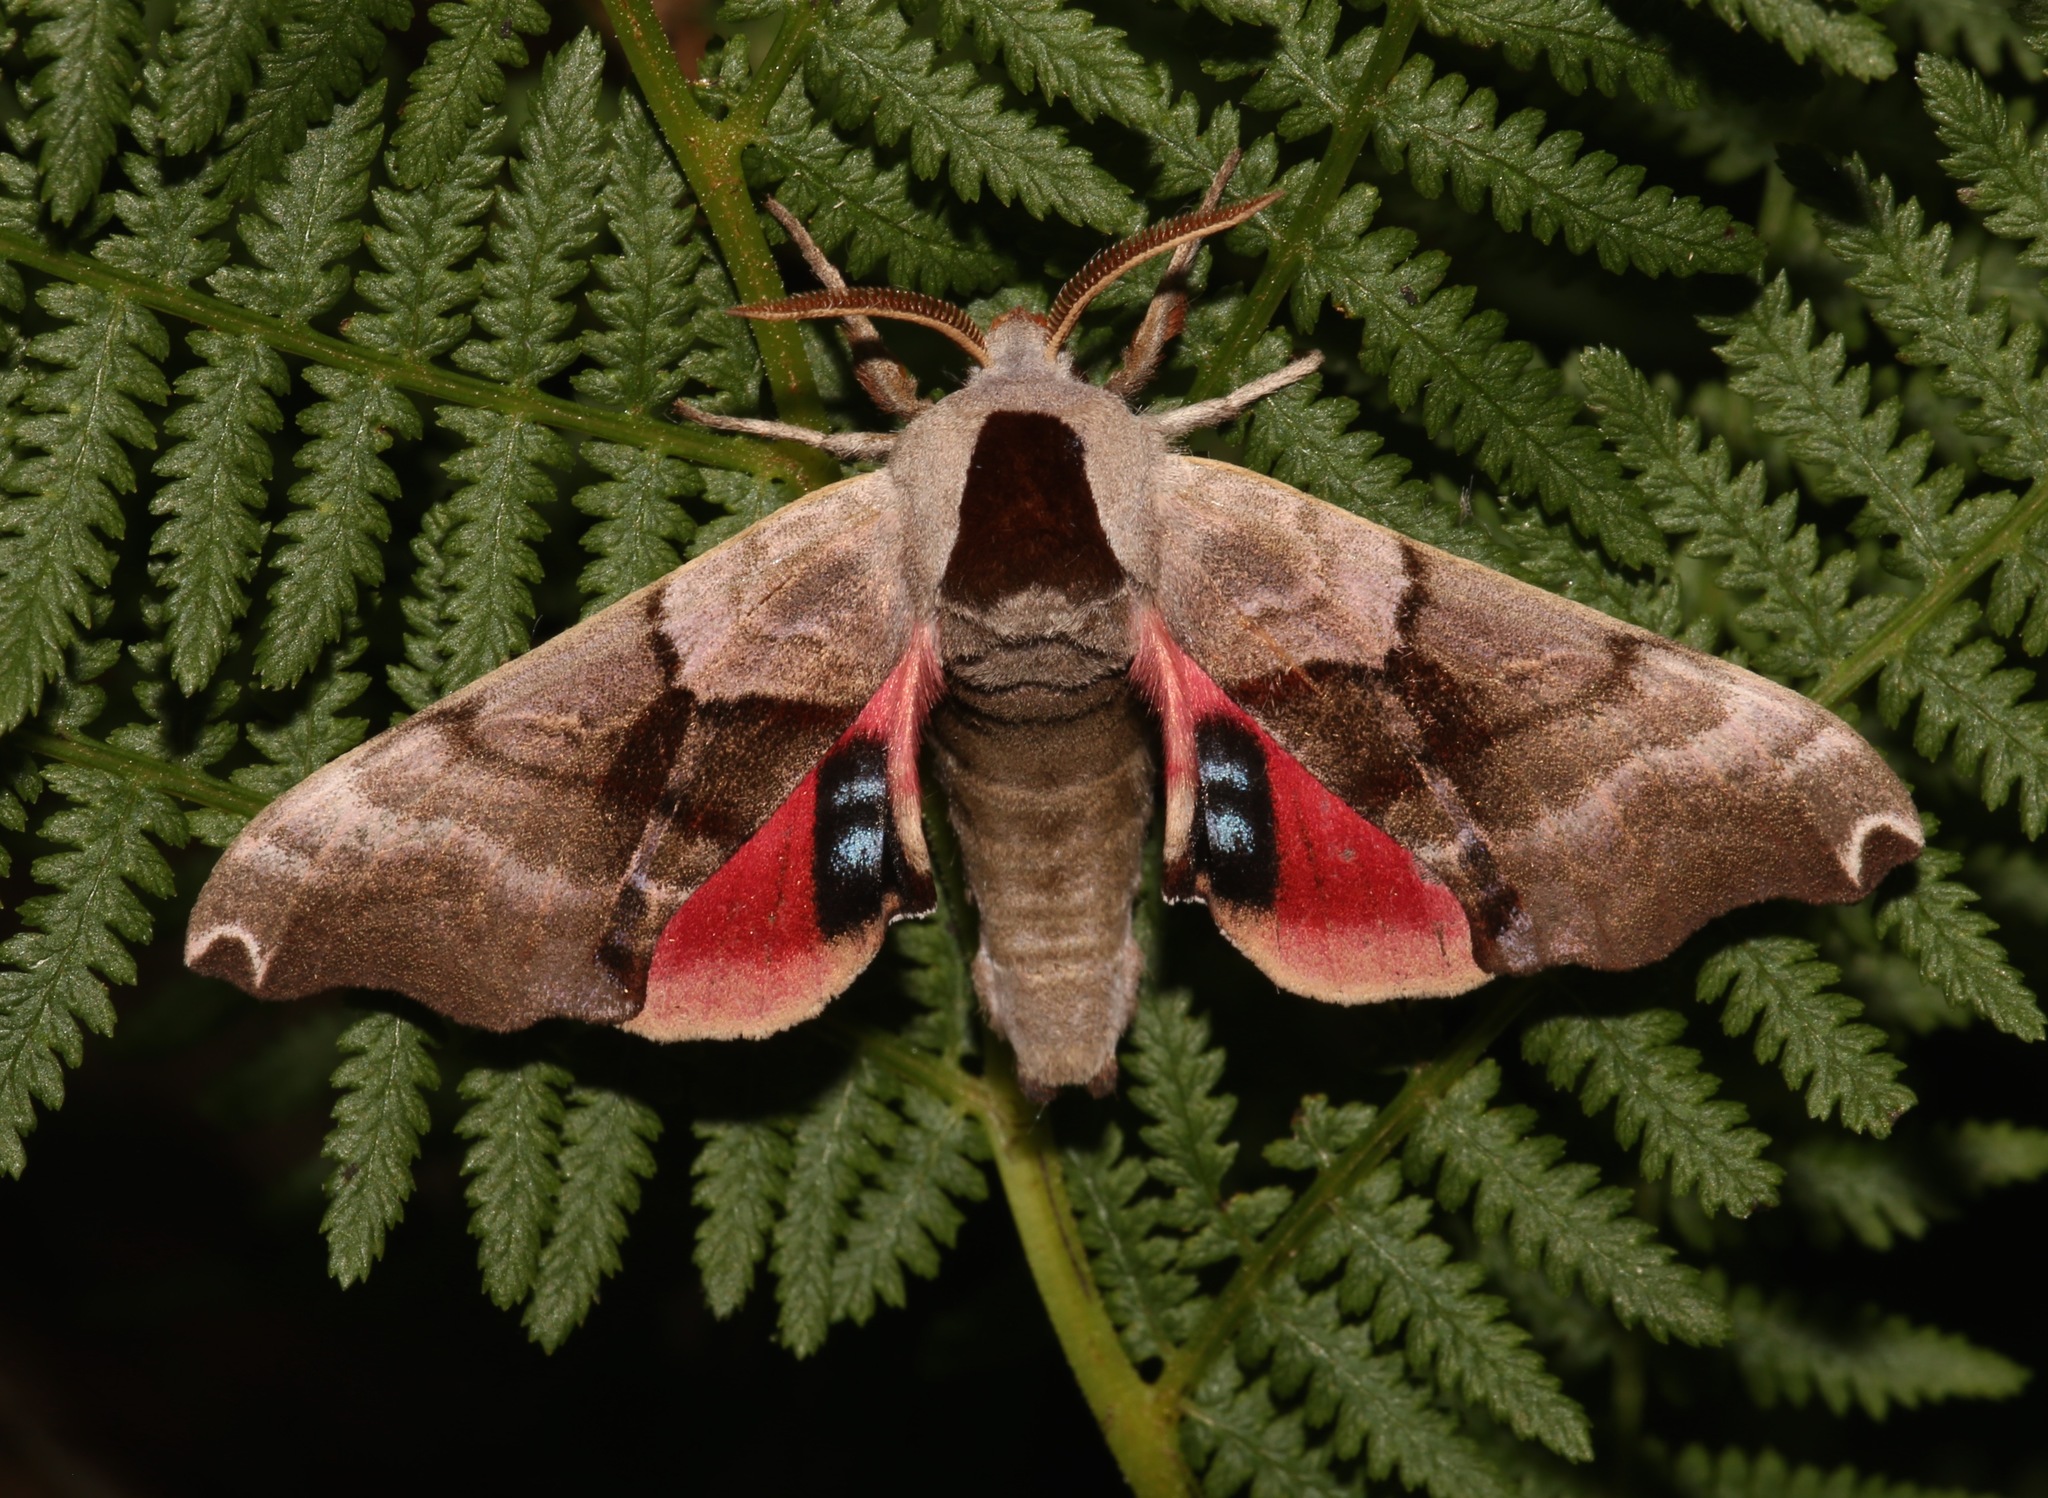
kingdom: Animalia
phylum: Arthropoda
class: Insecta
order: Lepidoptera
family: Sphingidae
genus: Smerinthus
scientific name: Smerinthus jamaicensis
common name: Twin spotted sphinx
